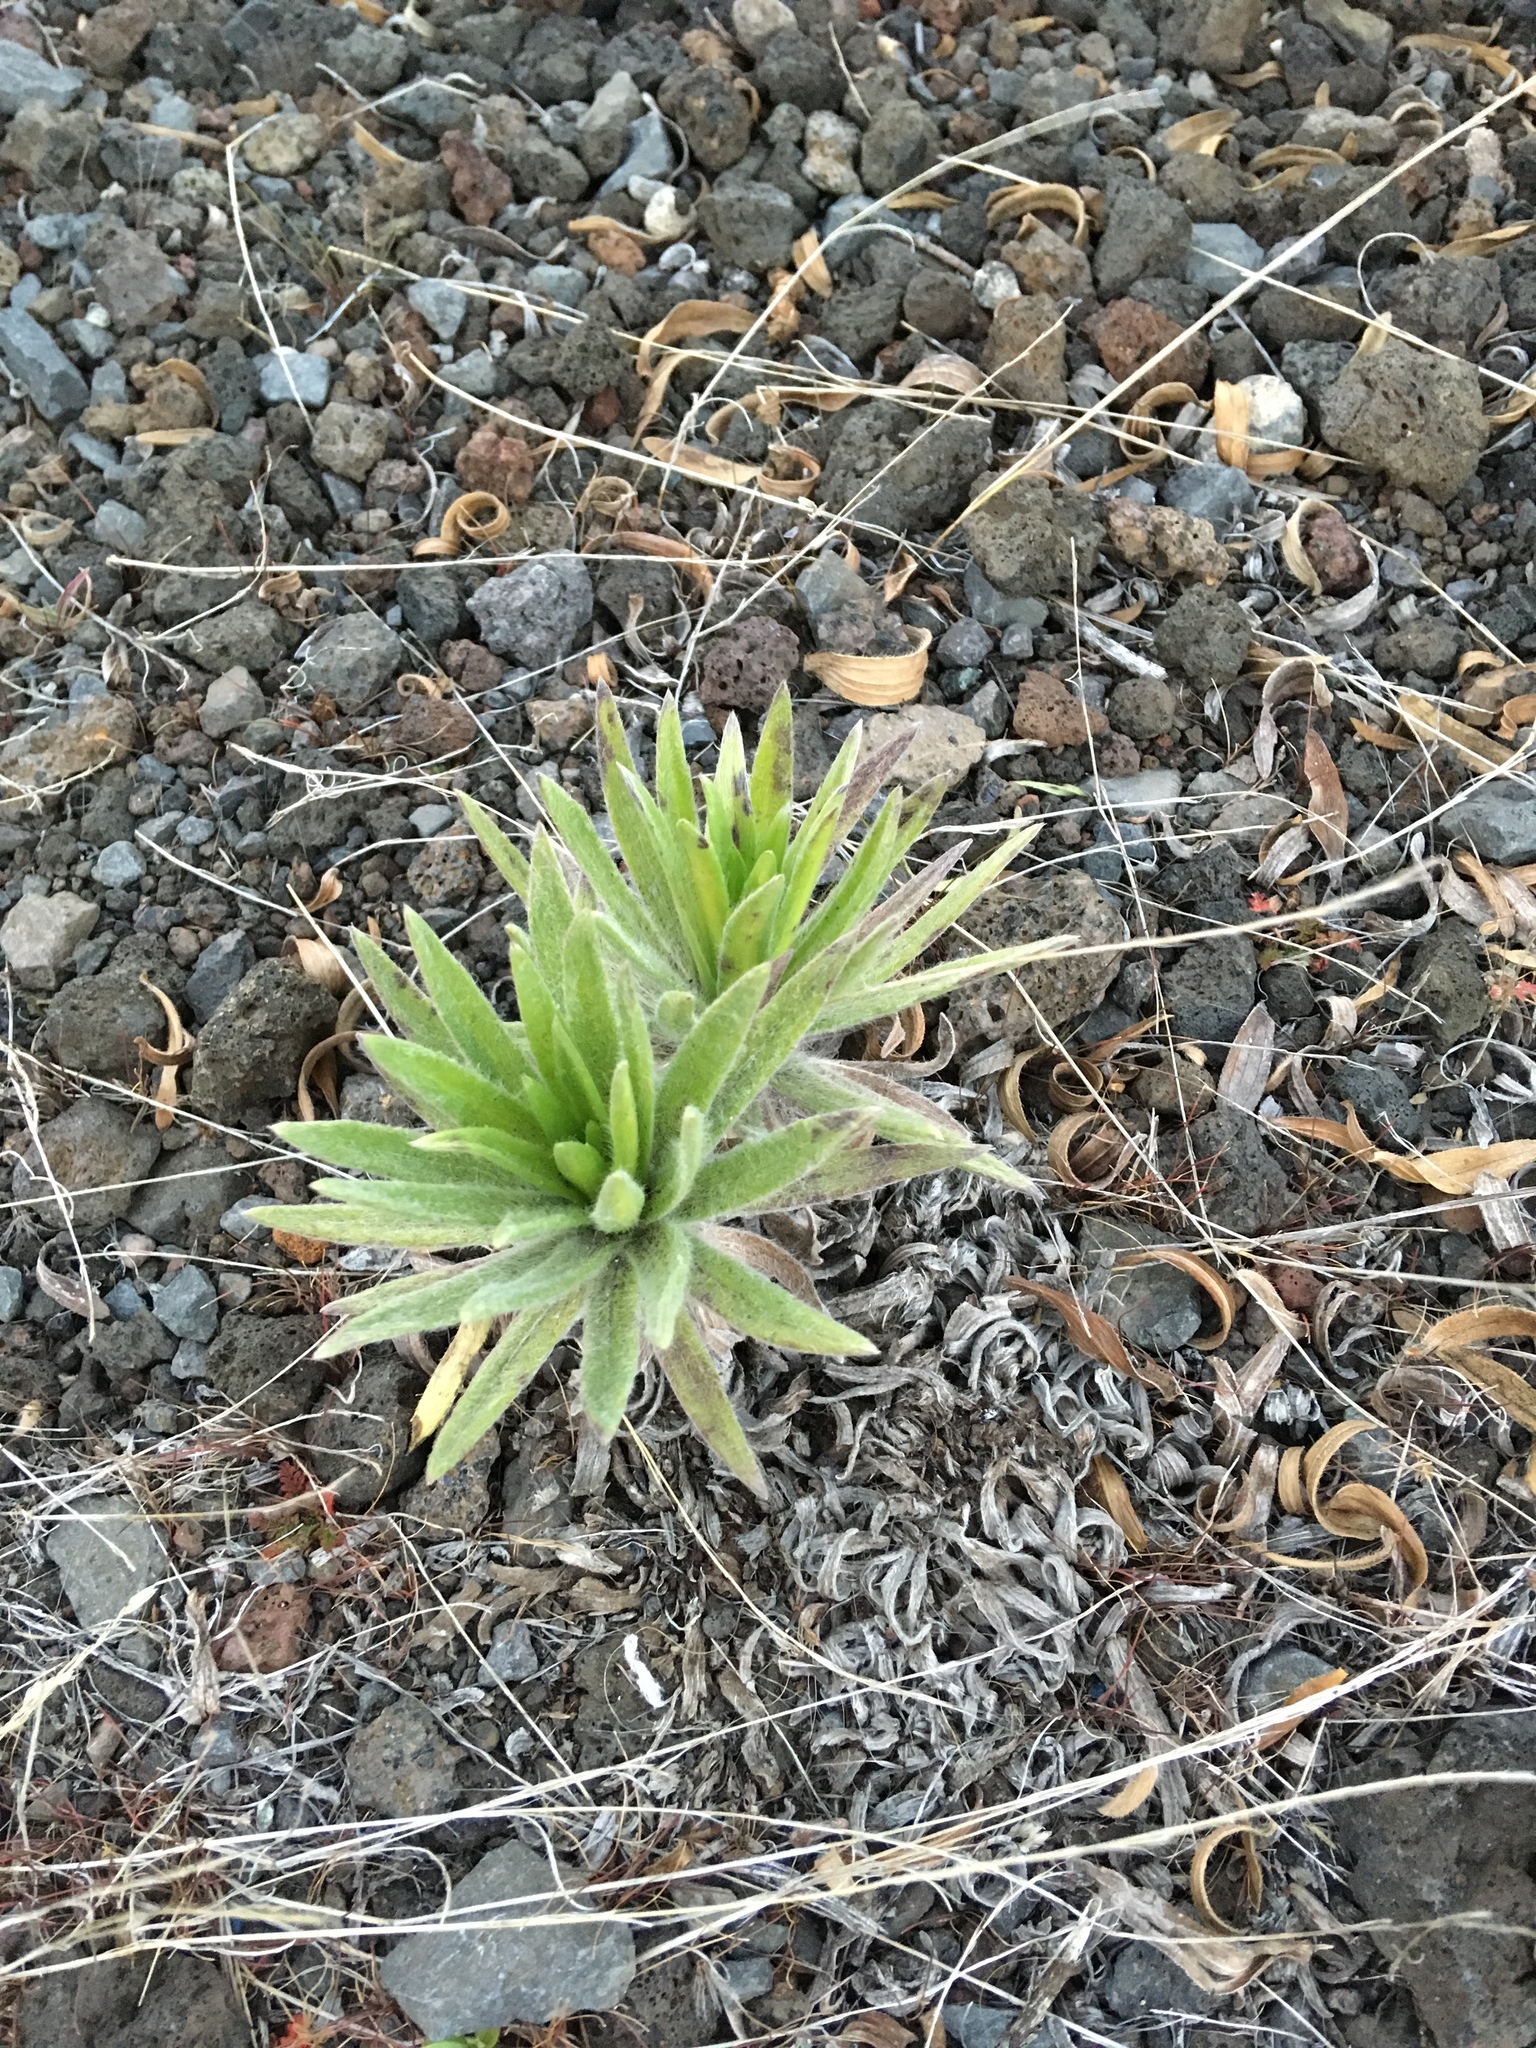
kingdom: Plantae
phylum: Tracheophyta
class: Magnoliopsida
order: Asterales
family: Asteraceae
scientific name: Asteraceae
